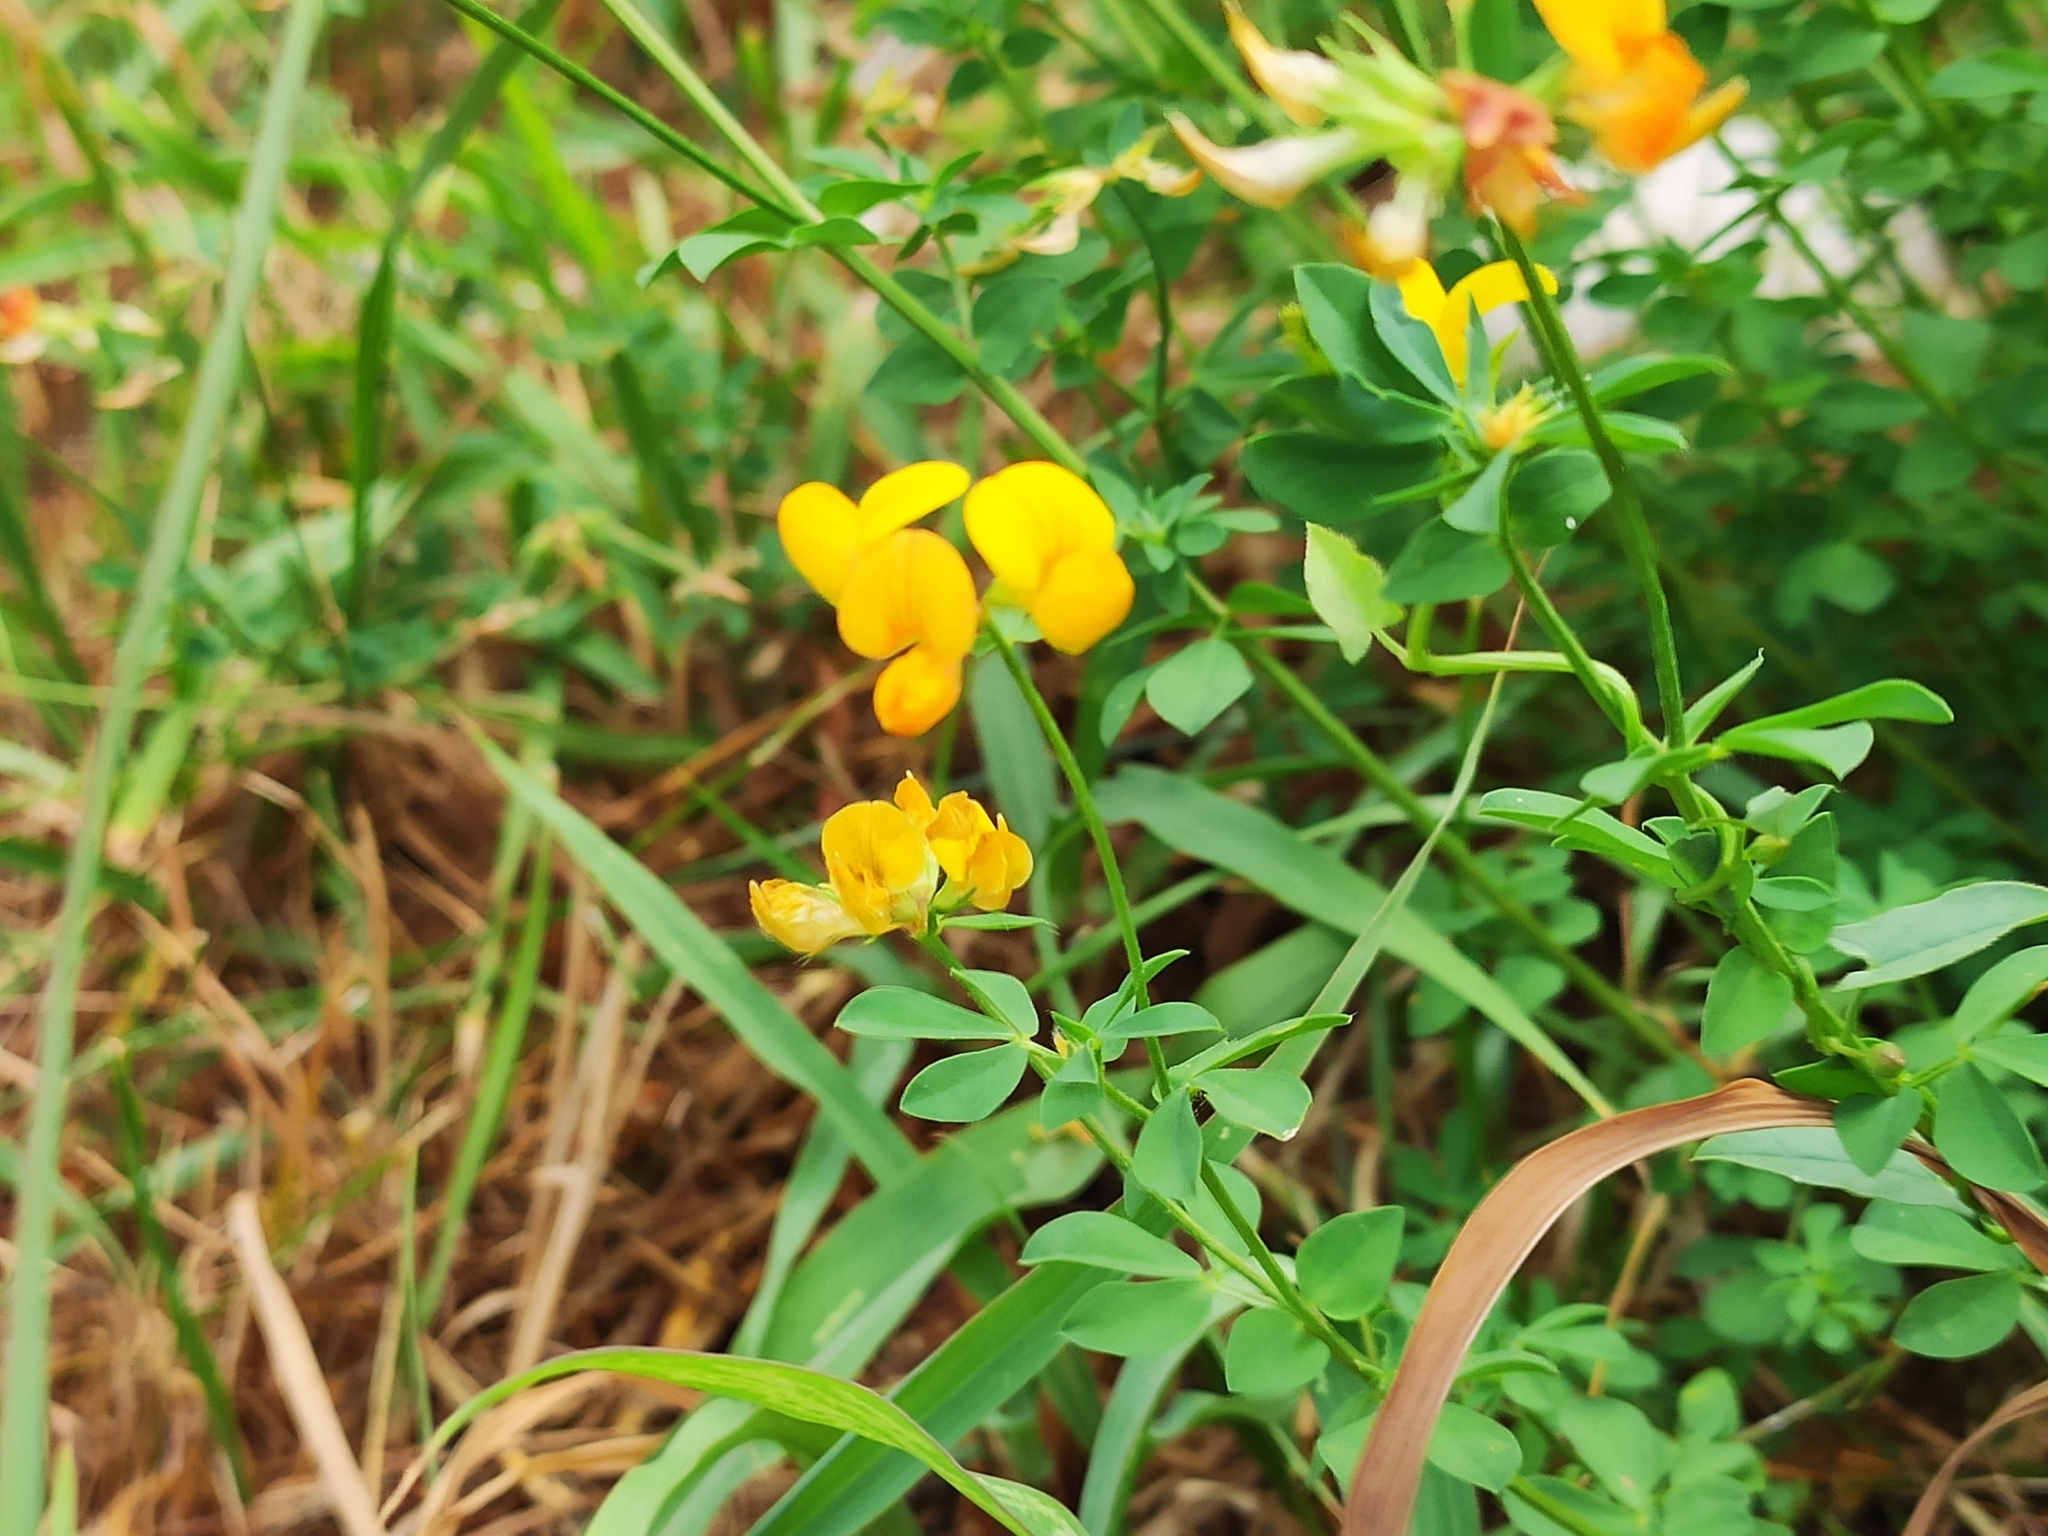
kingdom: Plantae
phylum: Tracheophyta
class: Magnoliopsida
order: Fabales
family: Fabaceae
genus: Lotus
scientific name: Lotus corniculatus
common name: Common bird's-foot-trefoil
